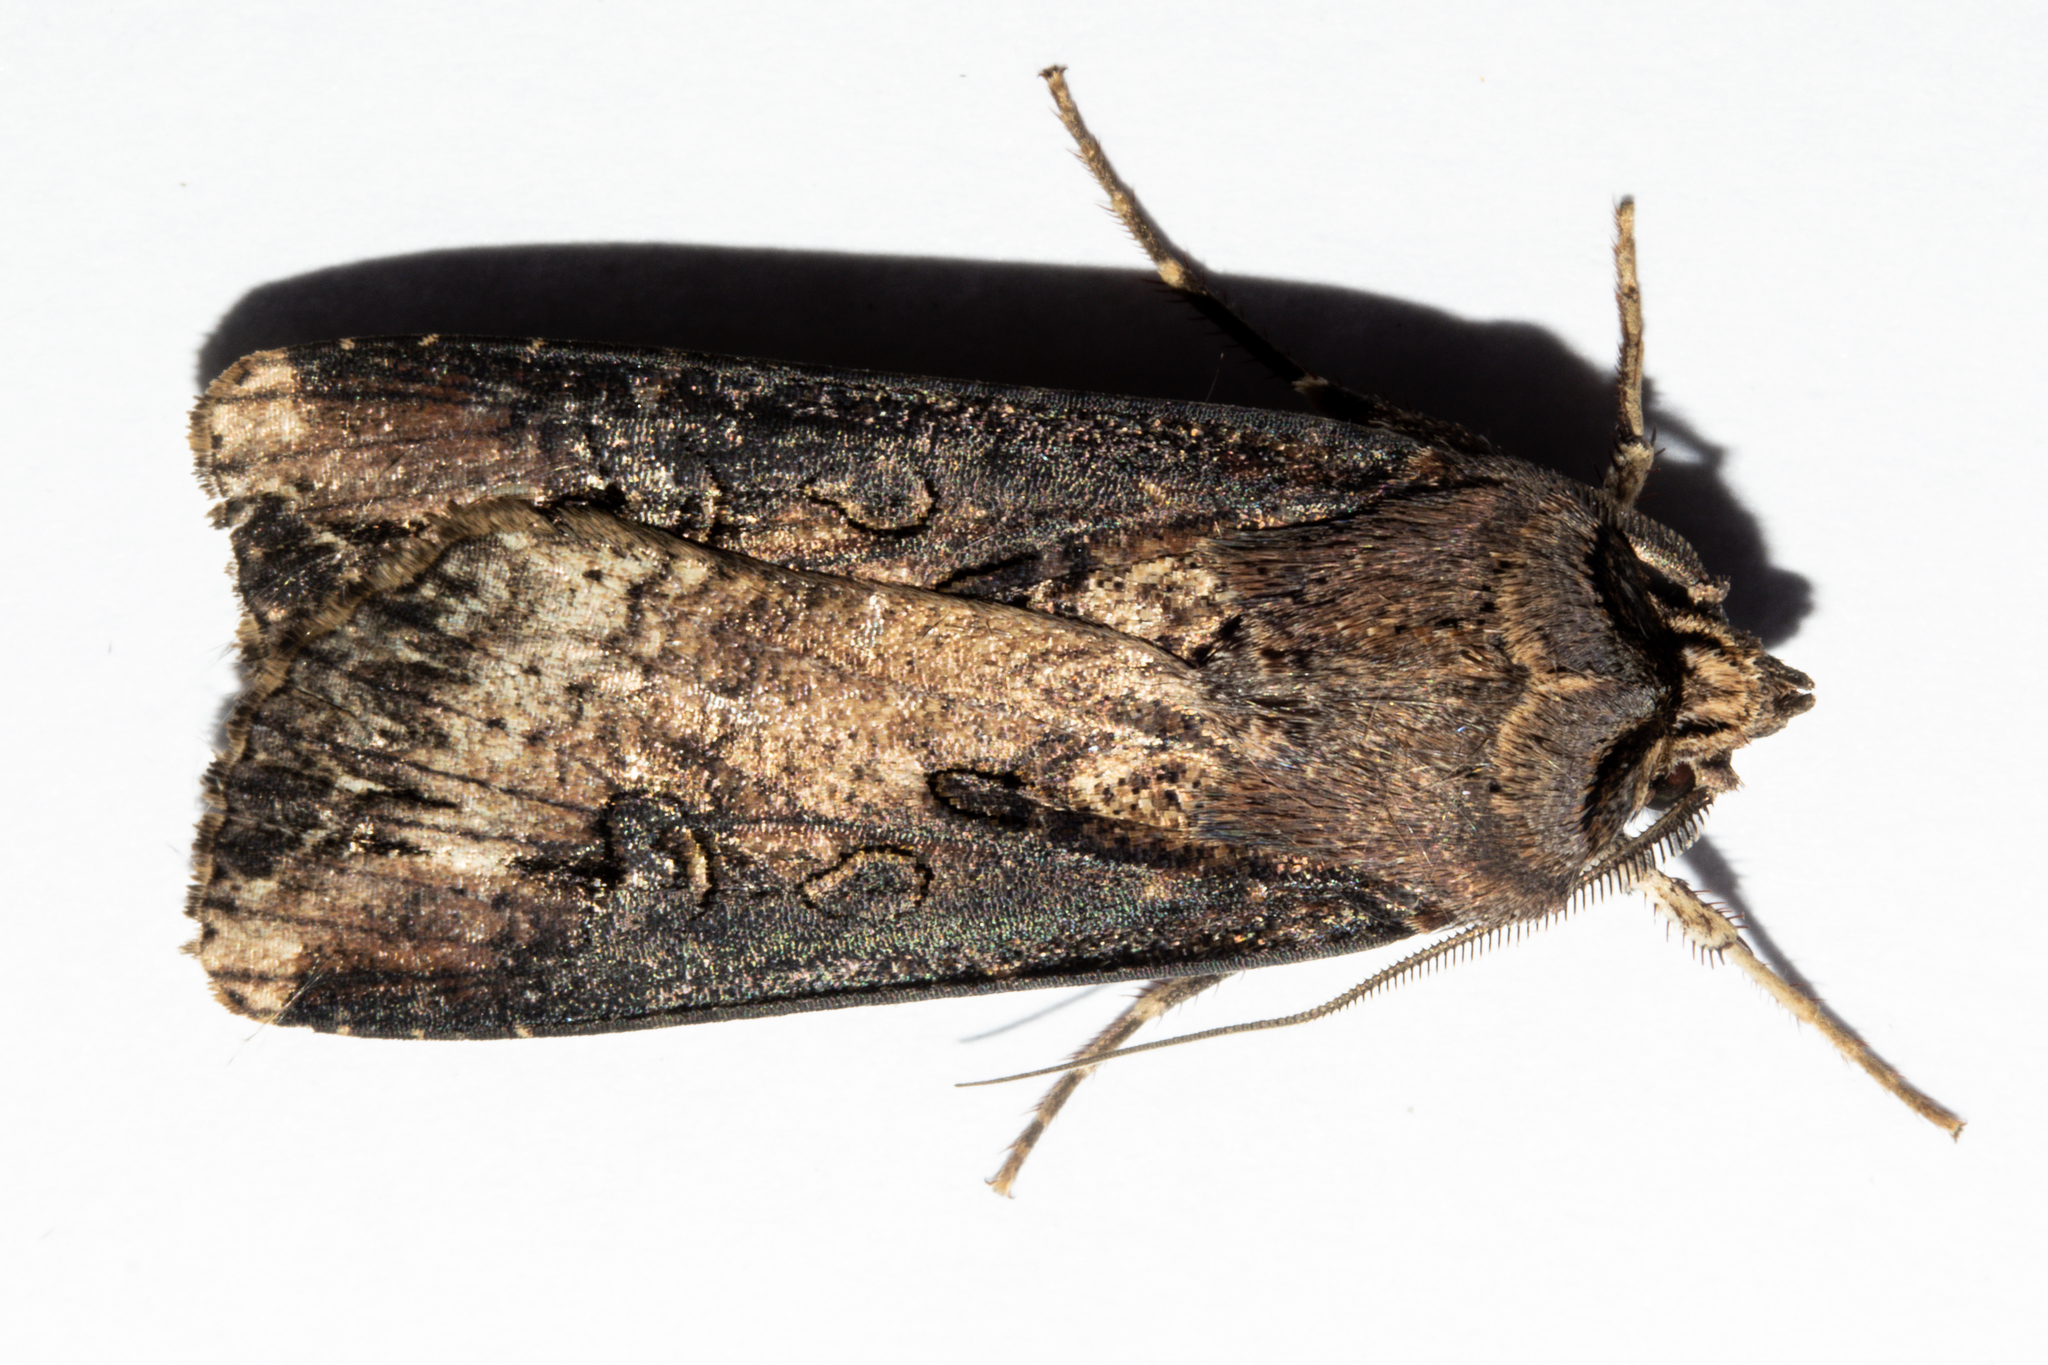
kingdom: Animalia
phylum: Arthropoda
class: Insecta
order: Lepidoptera
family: Noctuidae
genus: Agrotis
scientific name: Agrotis ipsilon
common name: Dark sword-grass
